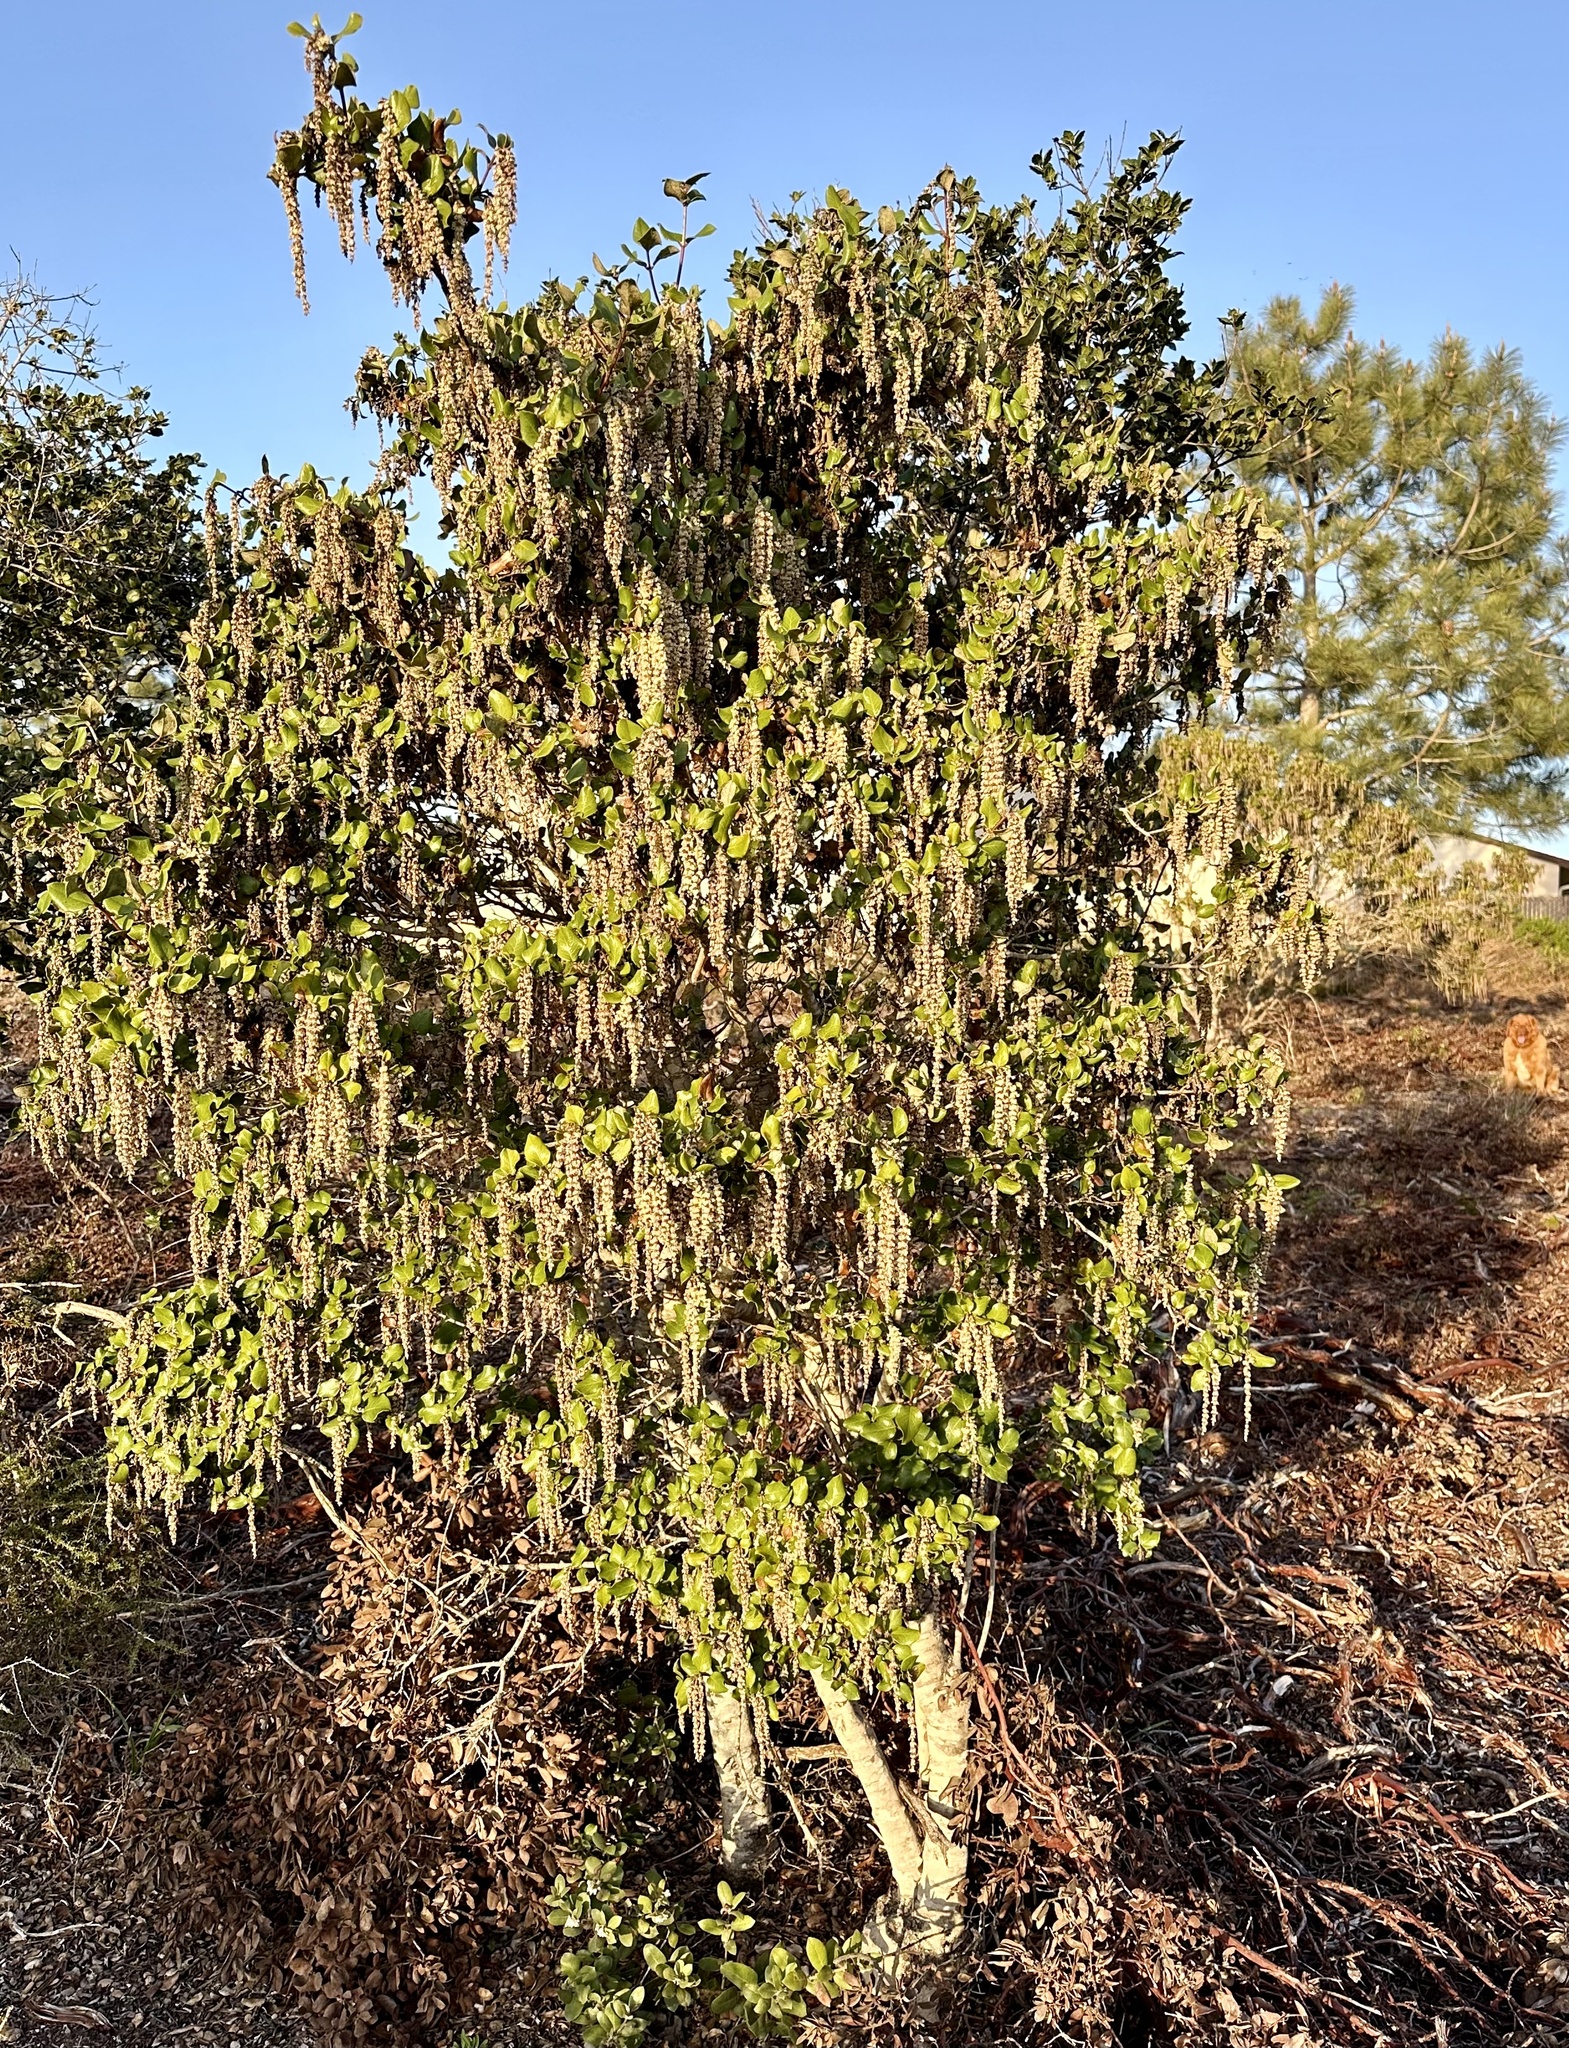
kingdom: Plantae
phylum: Tracheophyta
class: Magnoliopsida
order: Garryales
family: Garryaceae
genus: Garrya
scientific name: Garrya elliptica
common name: Silk-tassel
